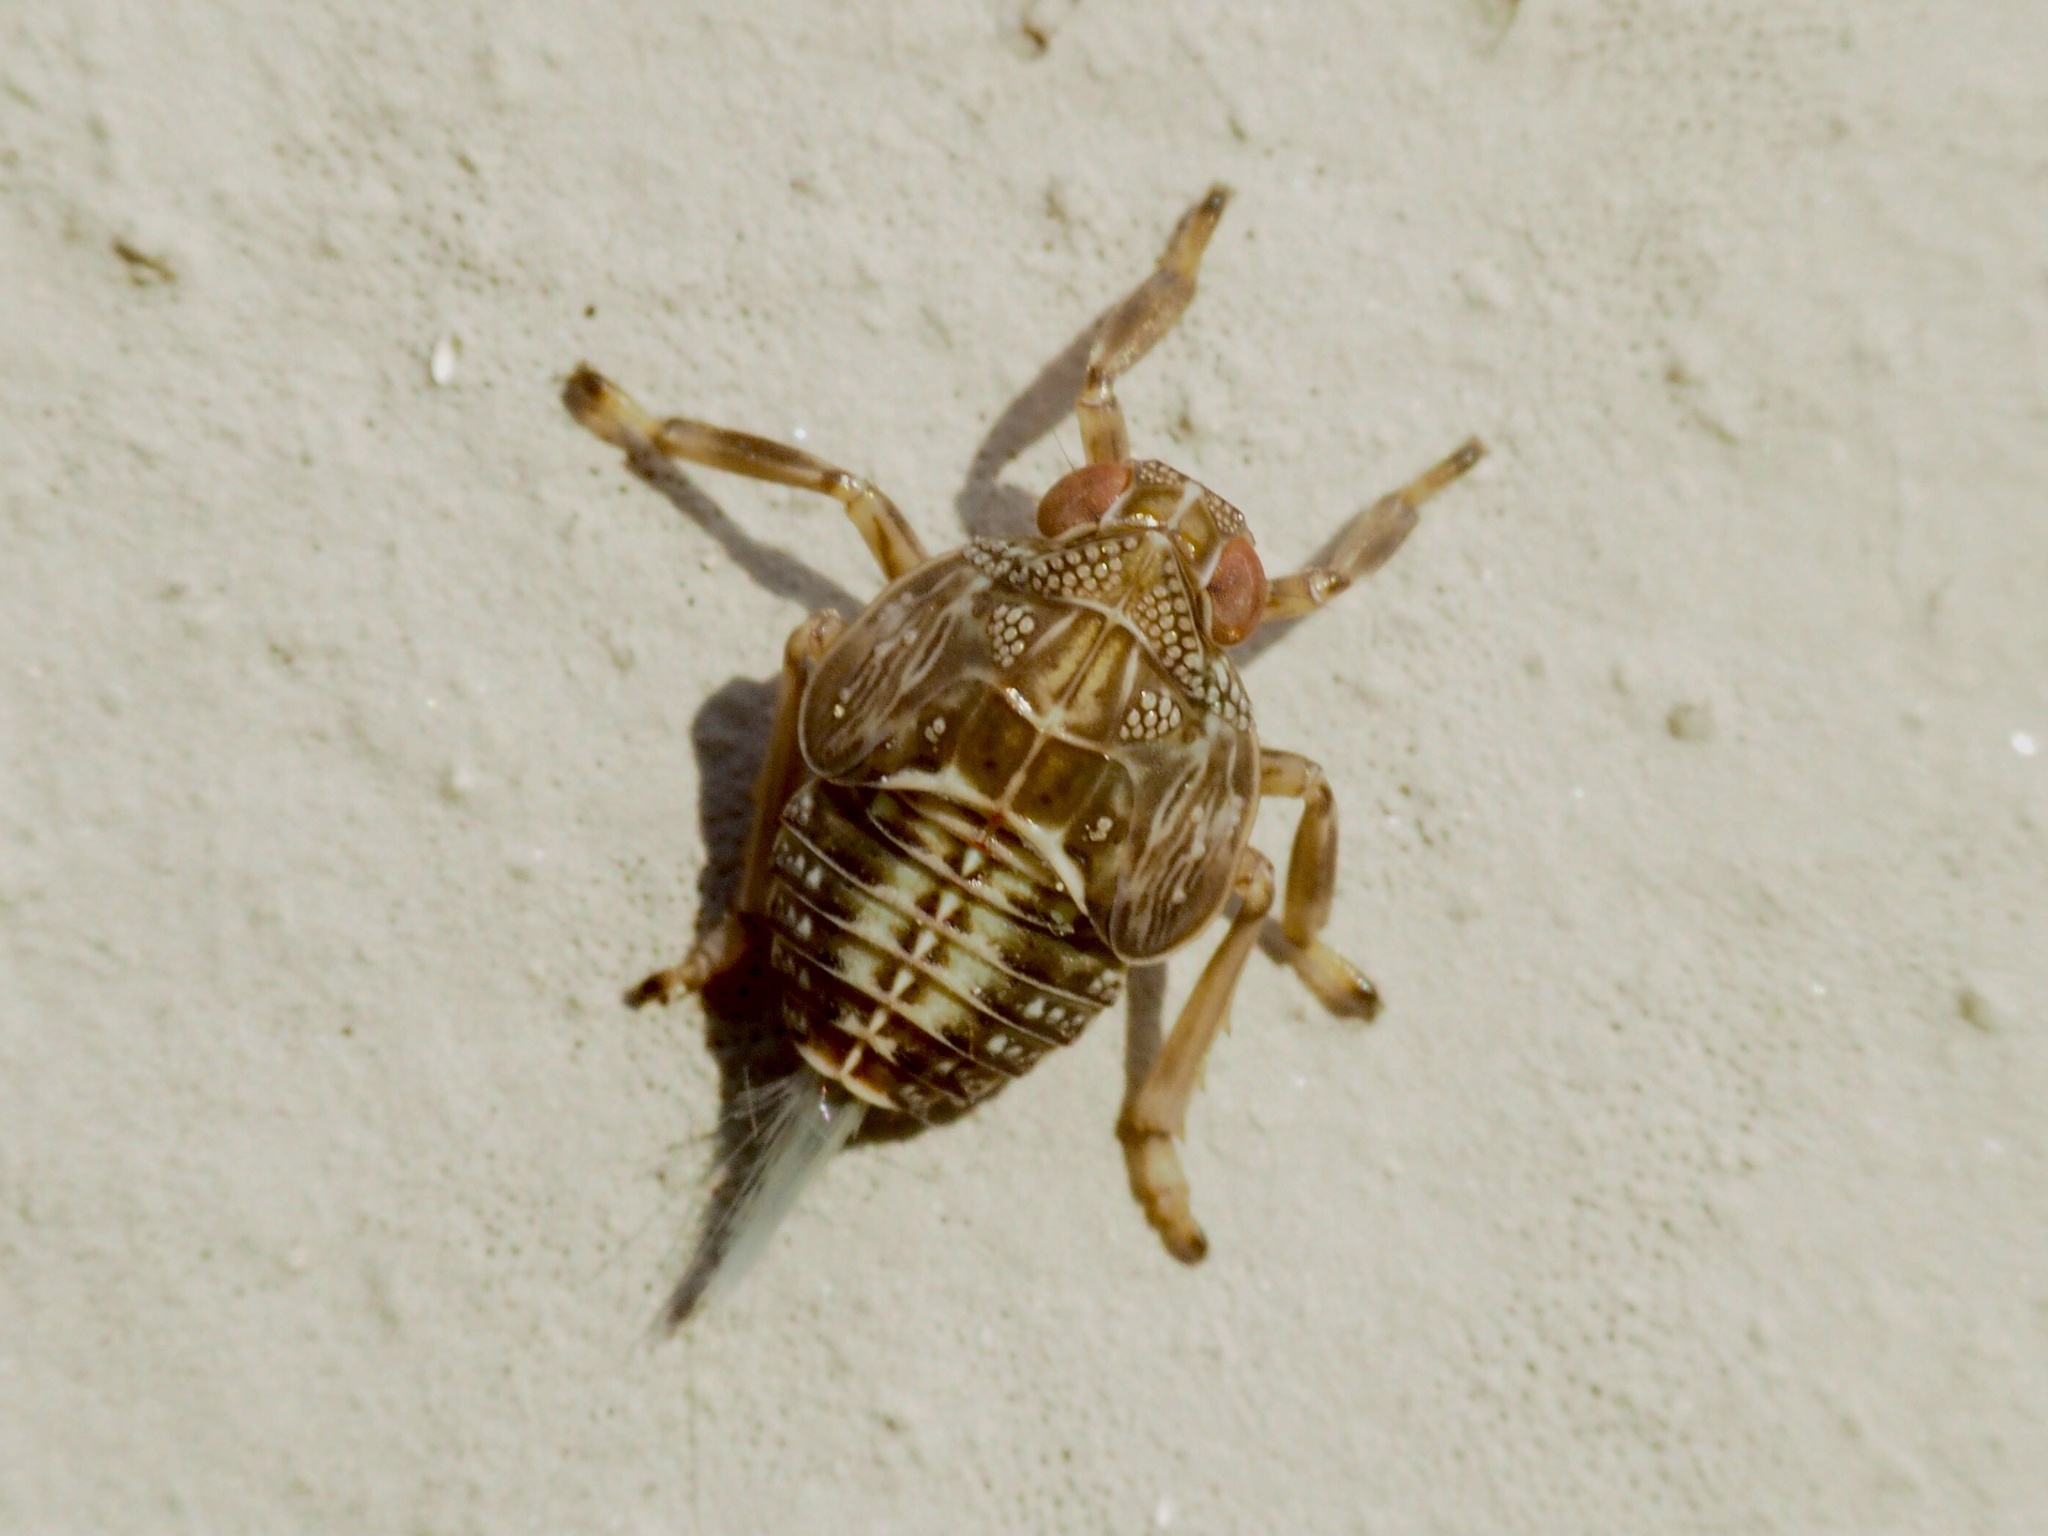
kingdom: Animalia
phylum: Arthropoda
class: Insecta
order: Hemiptera
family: Issidae
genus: Issus
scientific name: Issus coleoptratus
